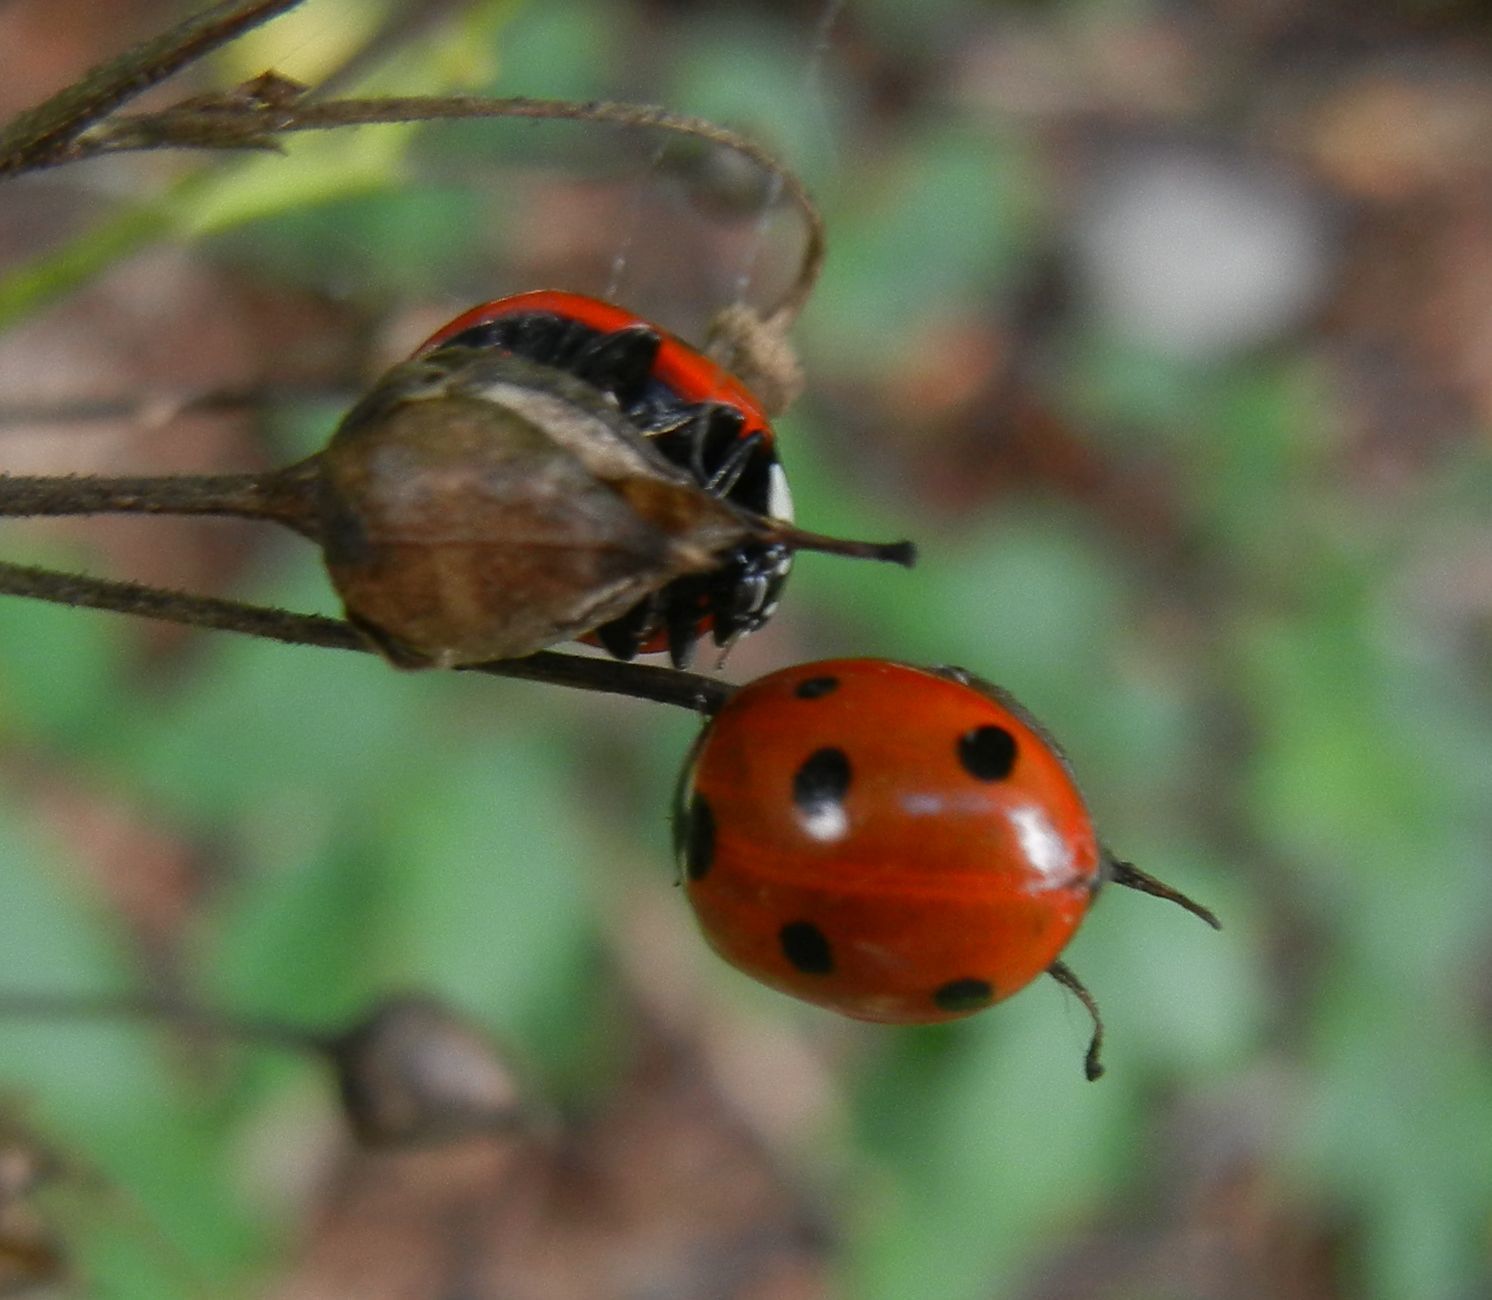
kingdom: Animalia
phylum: Arthropoda
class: Insecta
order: Coleoptera
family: Coccinellidae
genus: Coccinella
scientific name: Coccinella septempunctata
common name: Sevenspotted lady beetle
